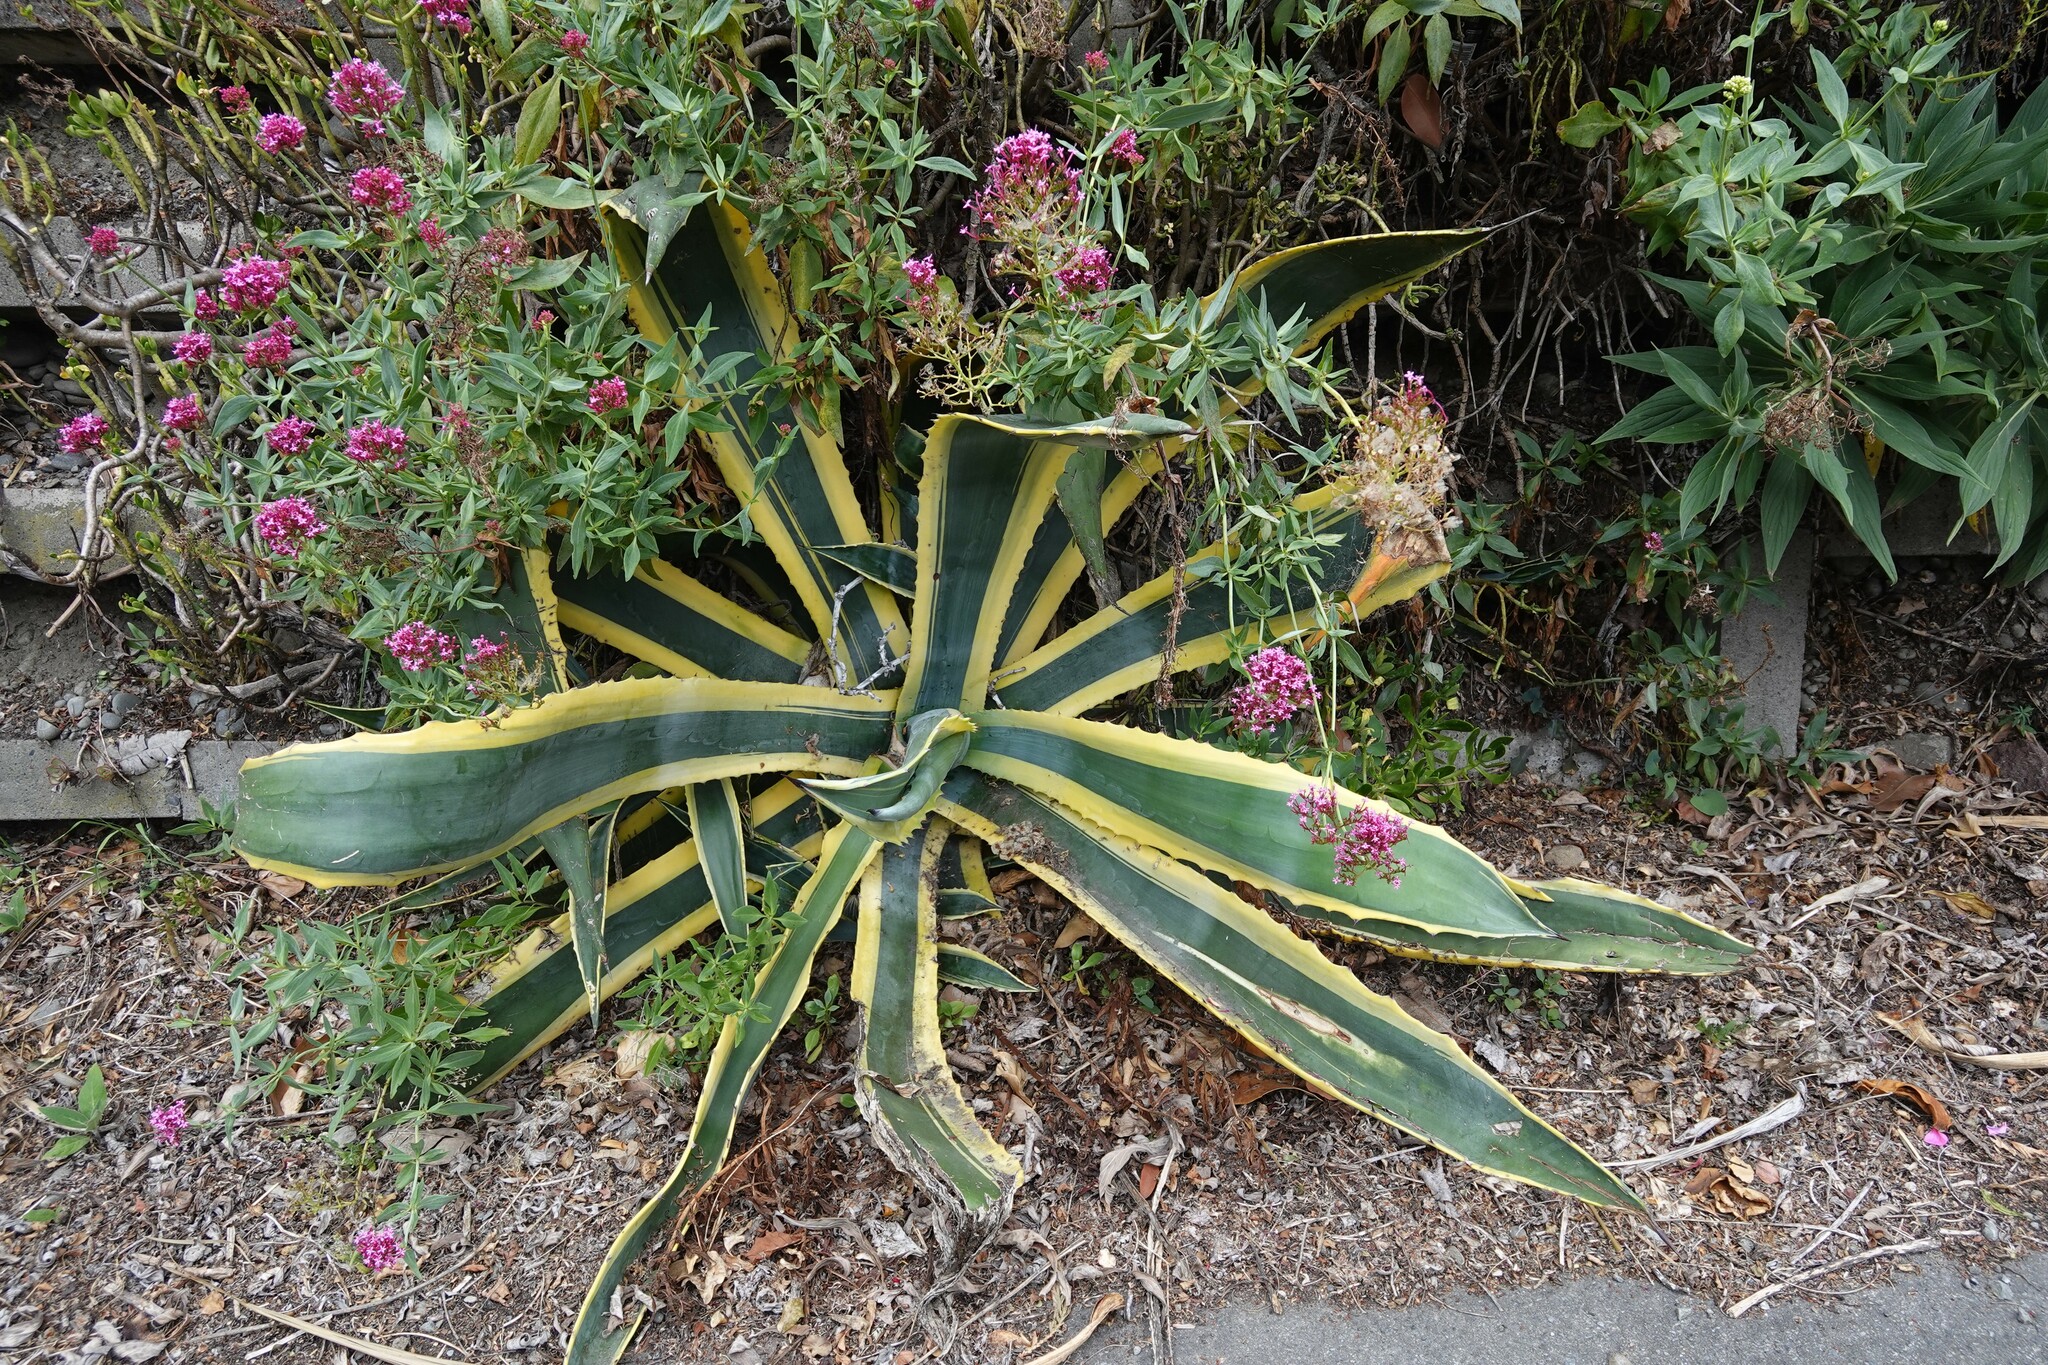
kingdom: Plantae
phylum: Tracheophyta
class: Liliopsida
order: Asparagales
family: Asparagaceae
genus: Agave
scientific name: Agave americana
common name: Centuryplant
